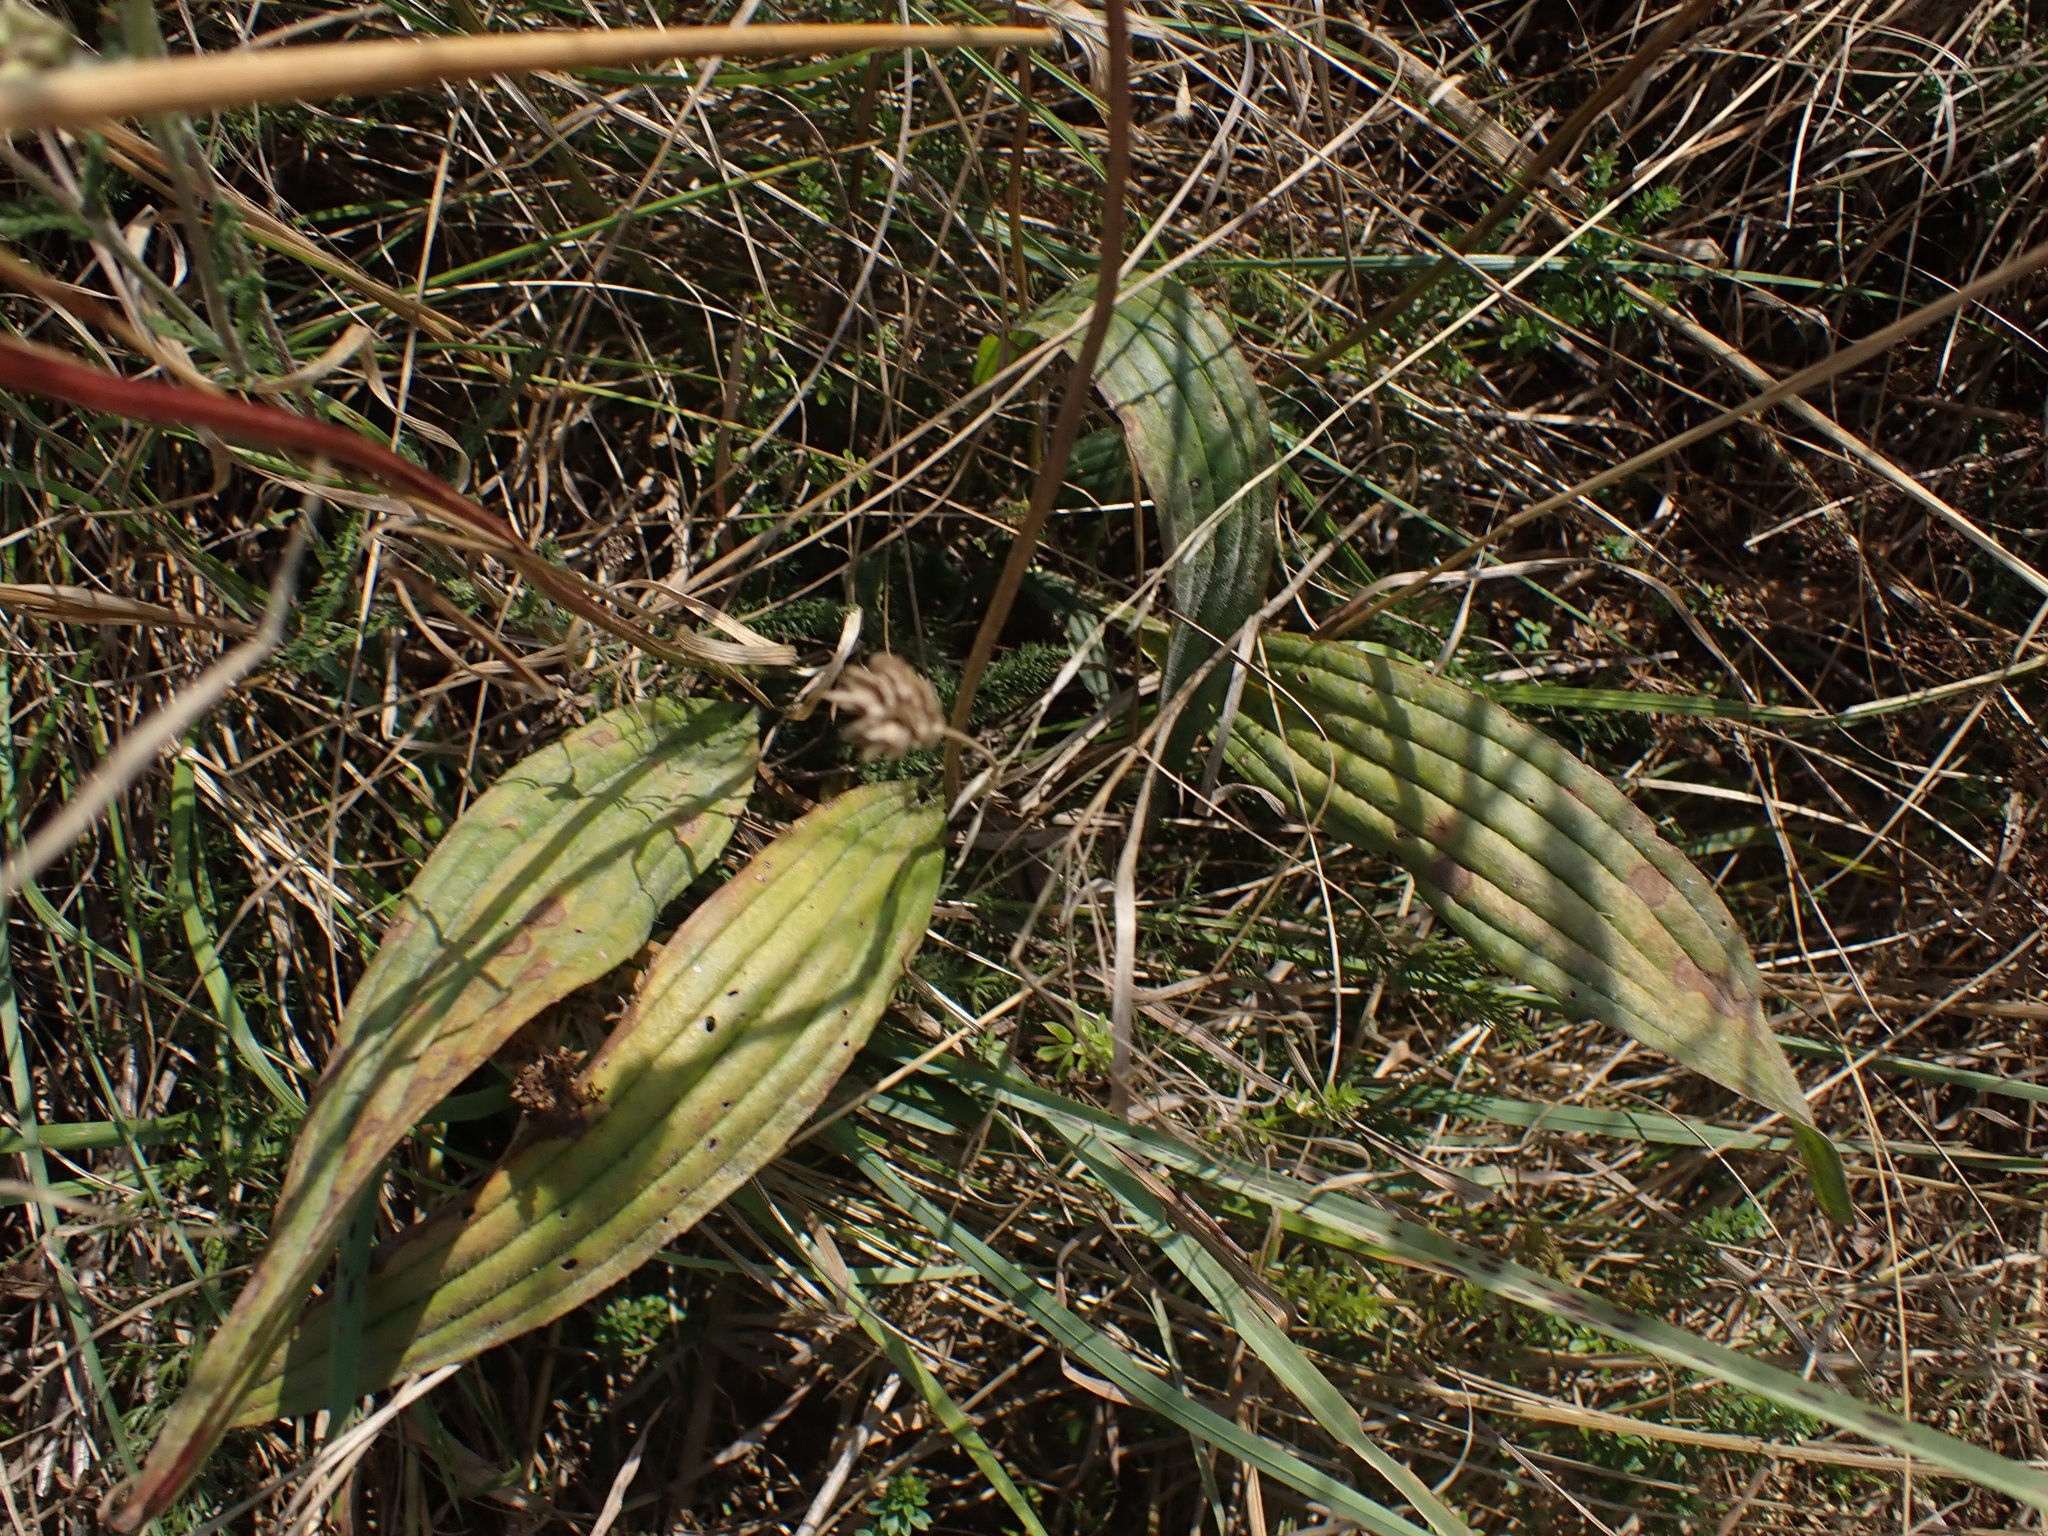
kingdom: Plantae
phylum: Tracheophyta
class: Magnoliopsida
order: Lamiales
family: Plantaginaceae
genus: Plantago
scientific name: Plantago lanceolata
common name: Ribwort plantain
